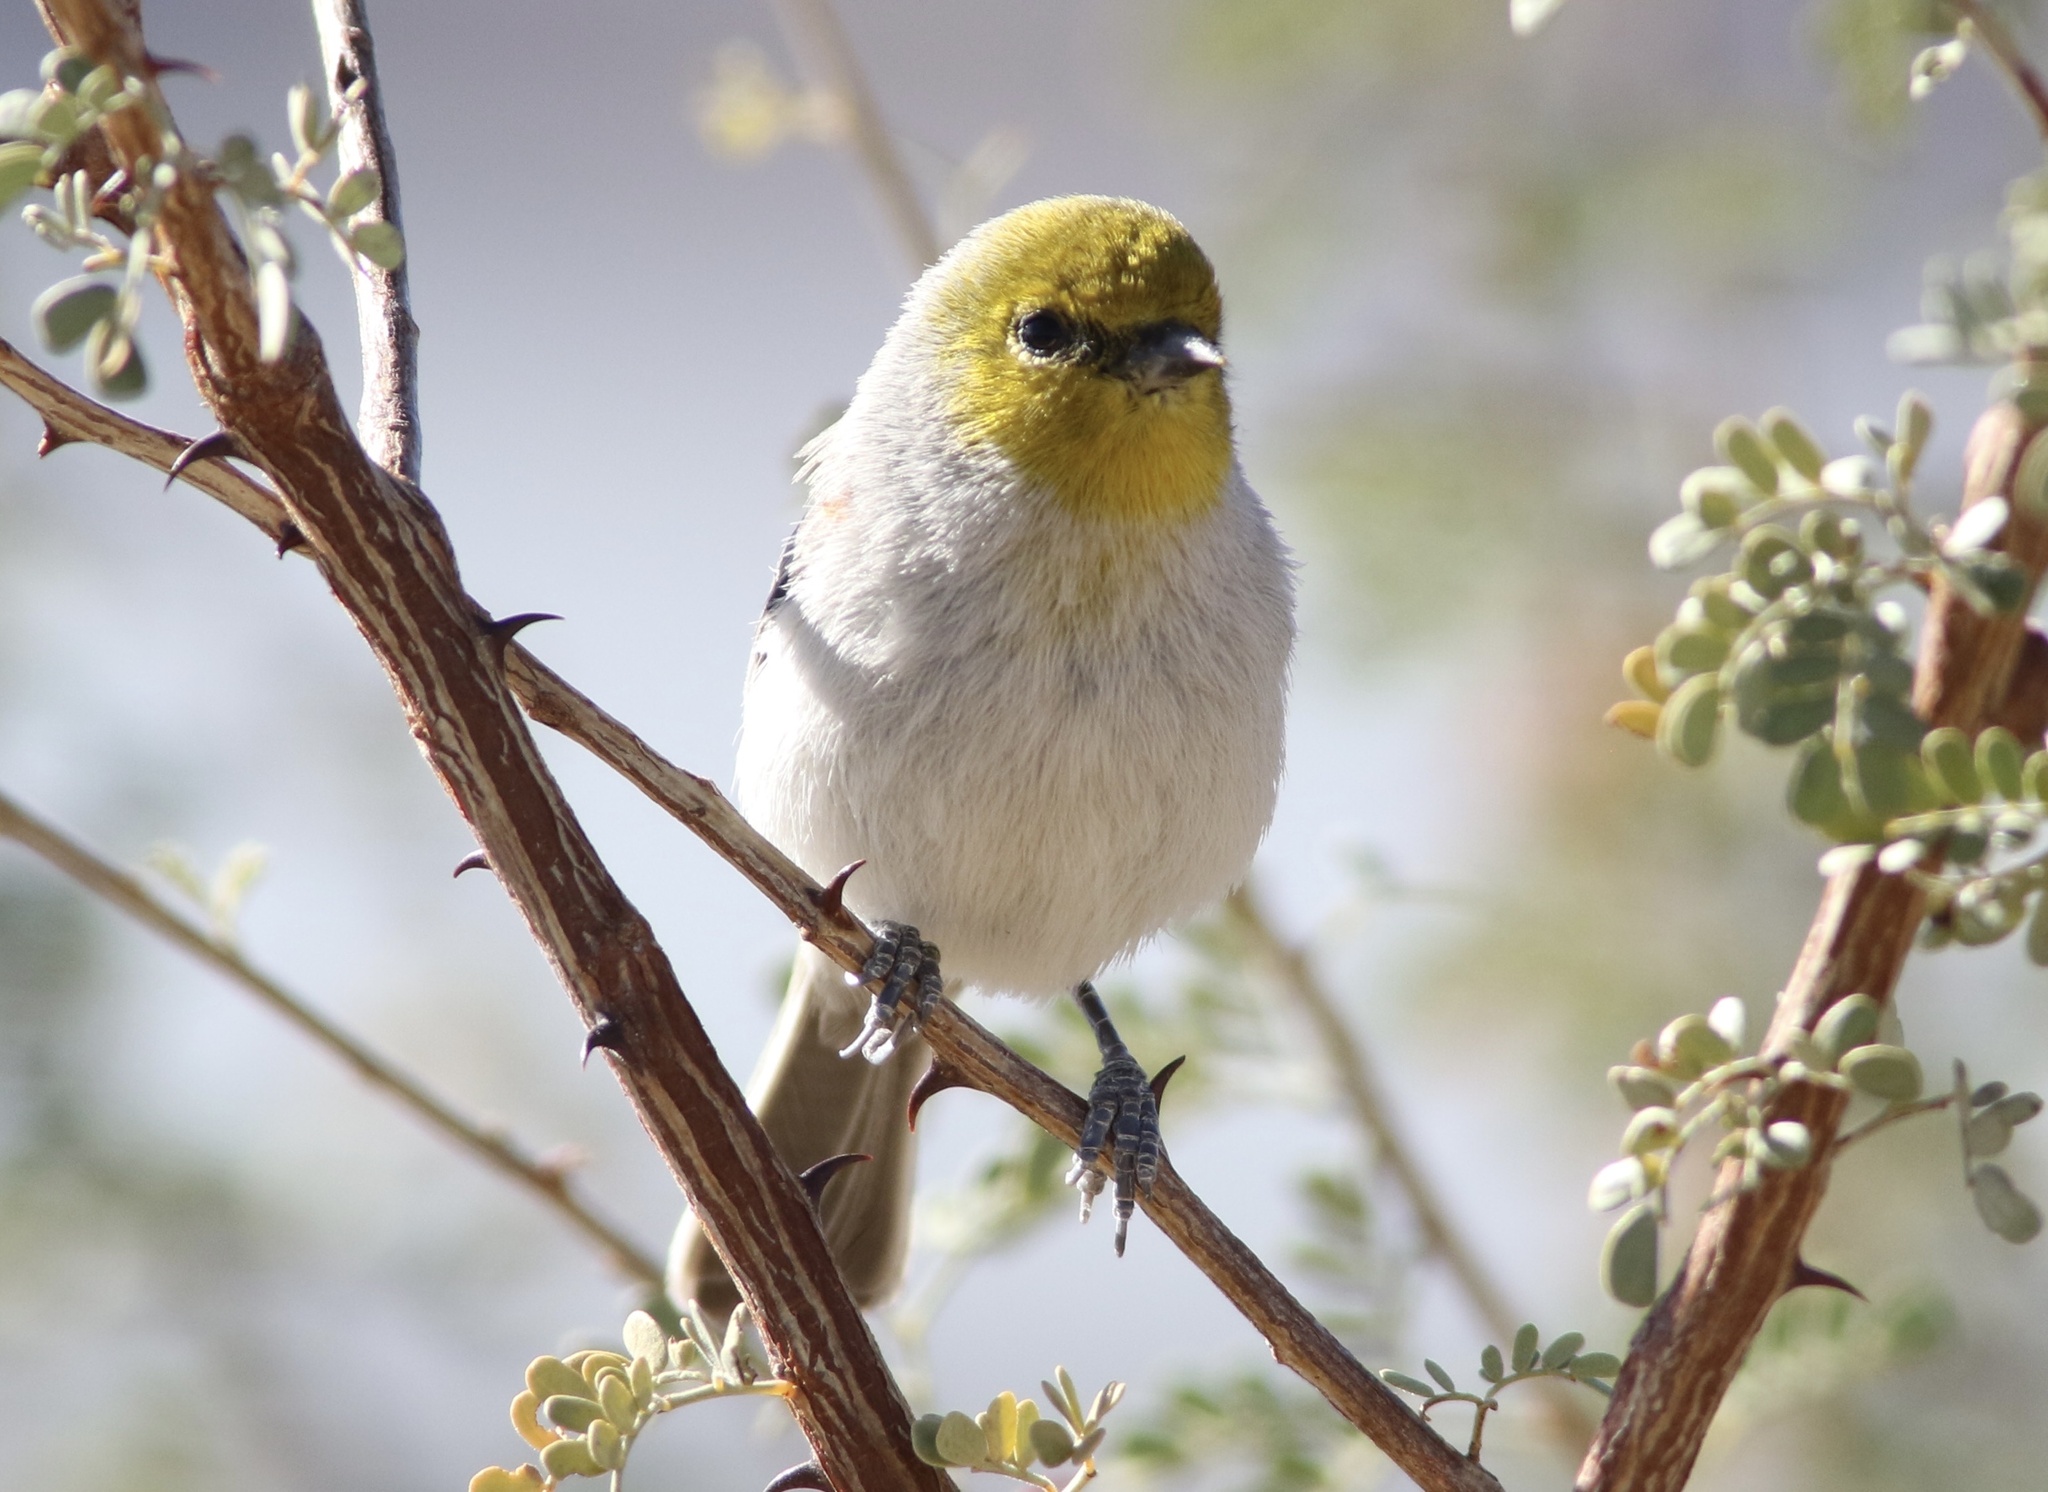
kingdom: Animalia
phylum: Chordata
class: Aves
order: Passeriformes
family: Remizidae
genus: Auriparus
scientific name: Auriparus flaviceps
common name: Verdin
